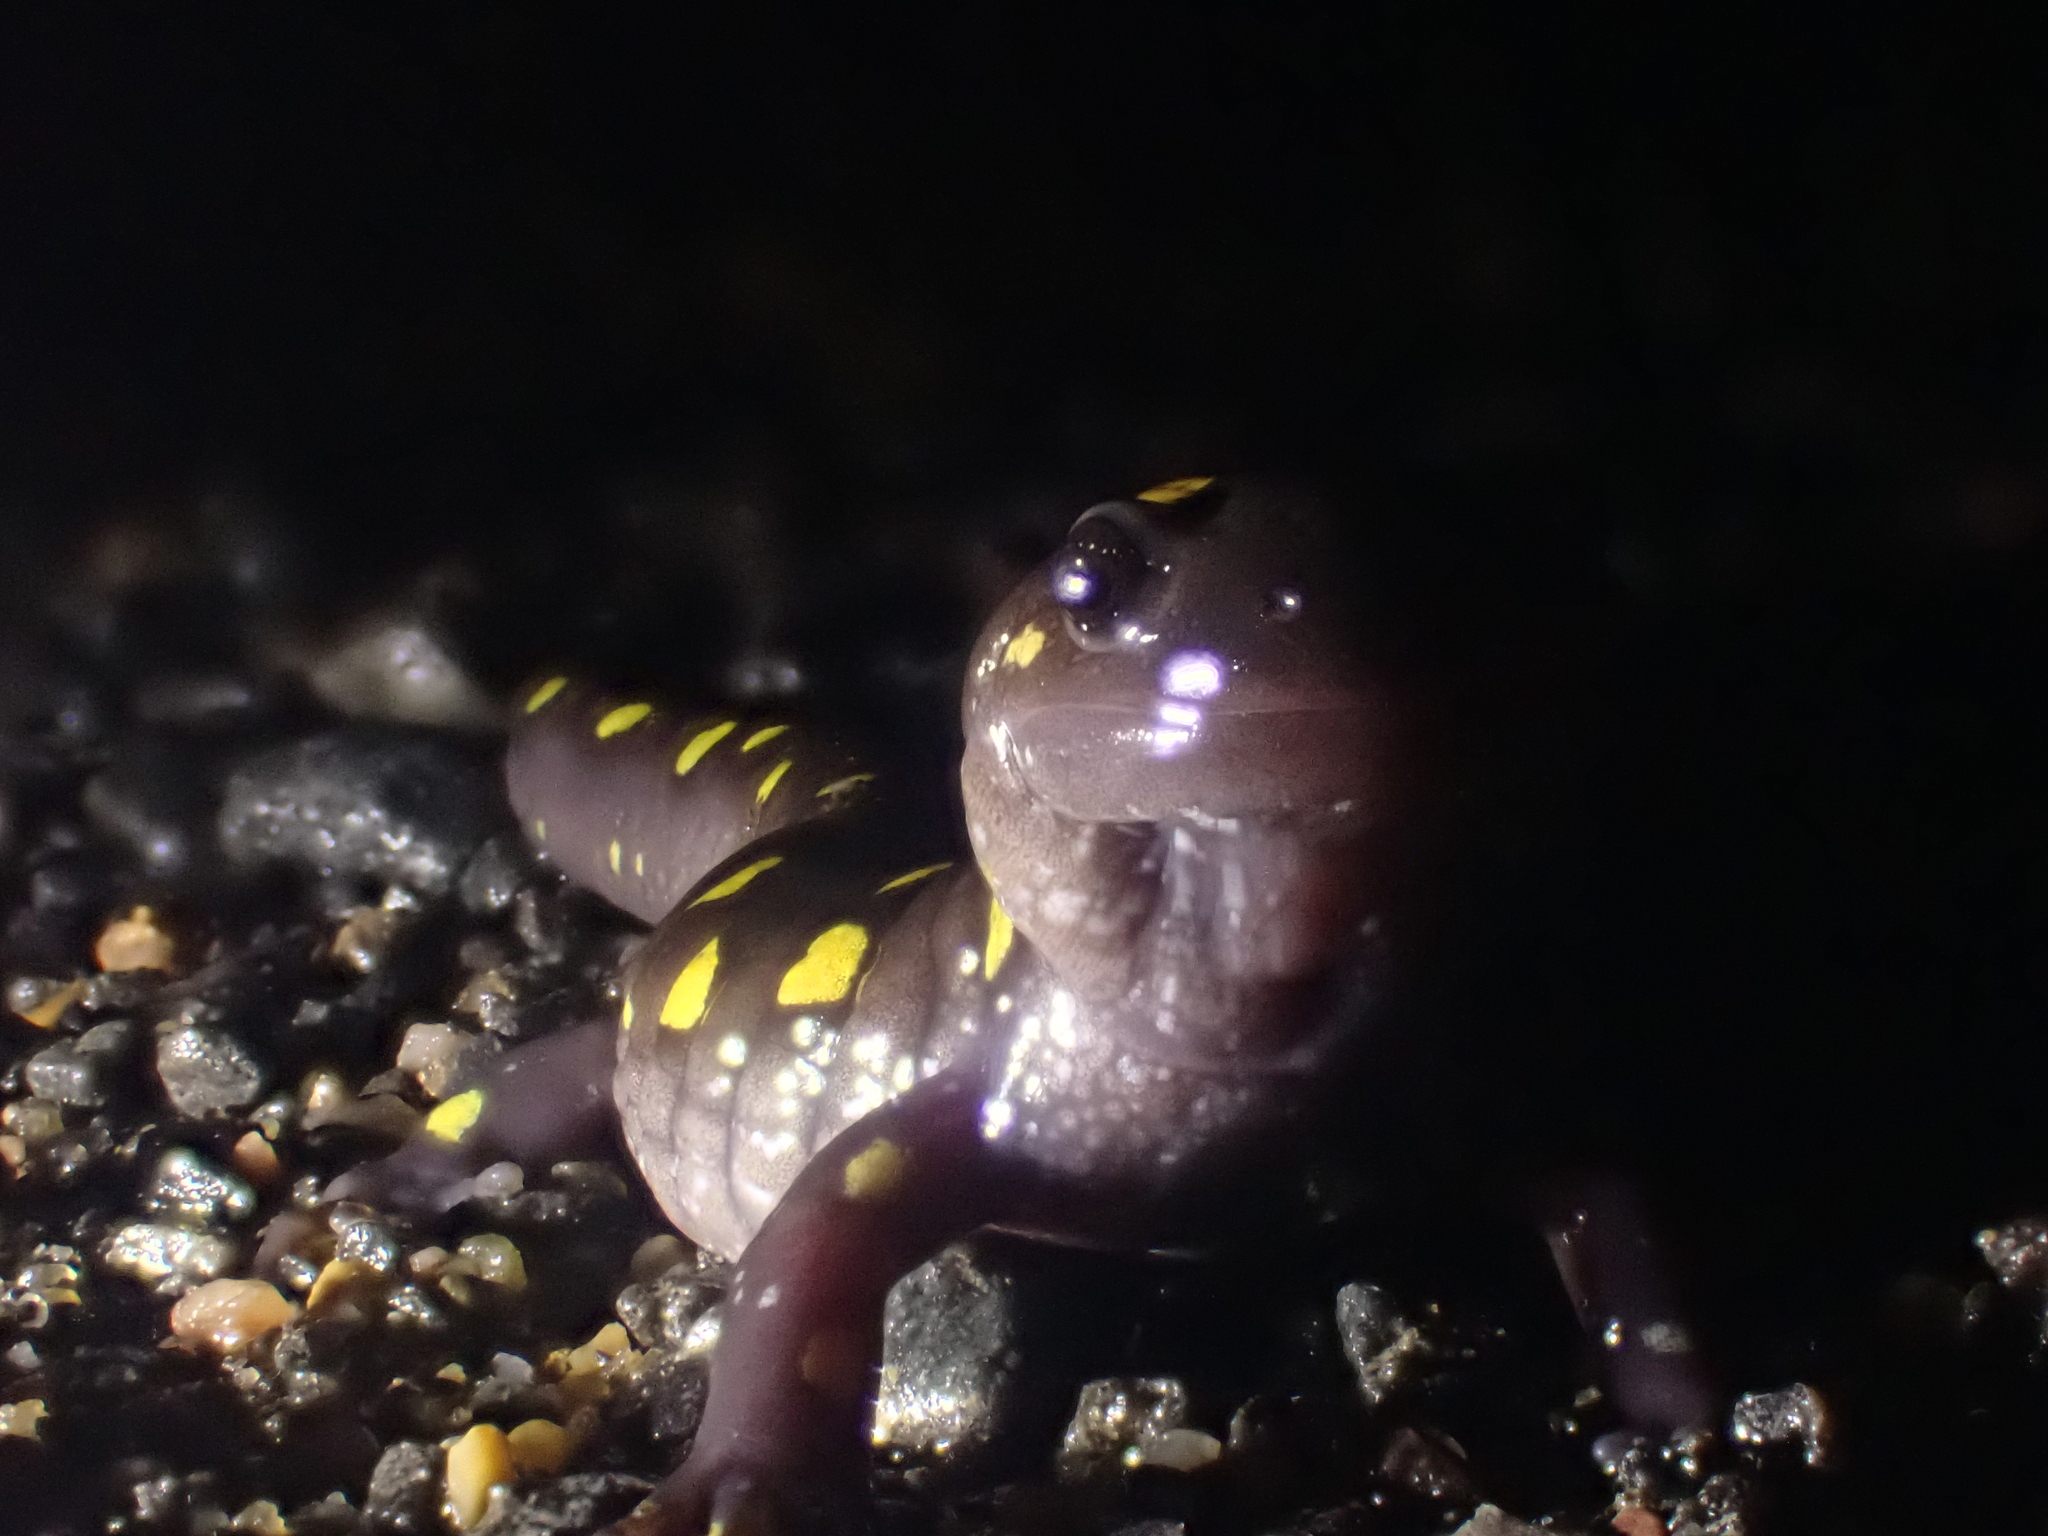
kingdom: Animalia
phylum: Chordata
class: Amphibia
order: Caudata
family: Ambystomatidae
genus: Ambystoma
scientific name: Ambystoma maculatum
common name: Spotted salamander
